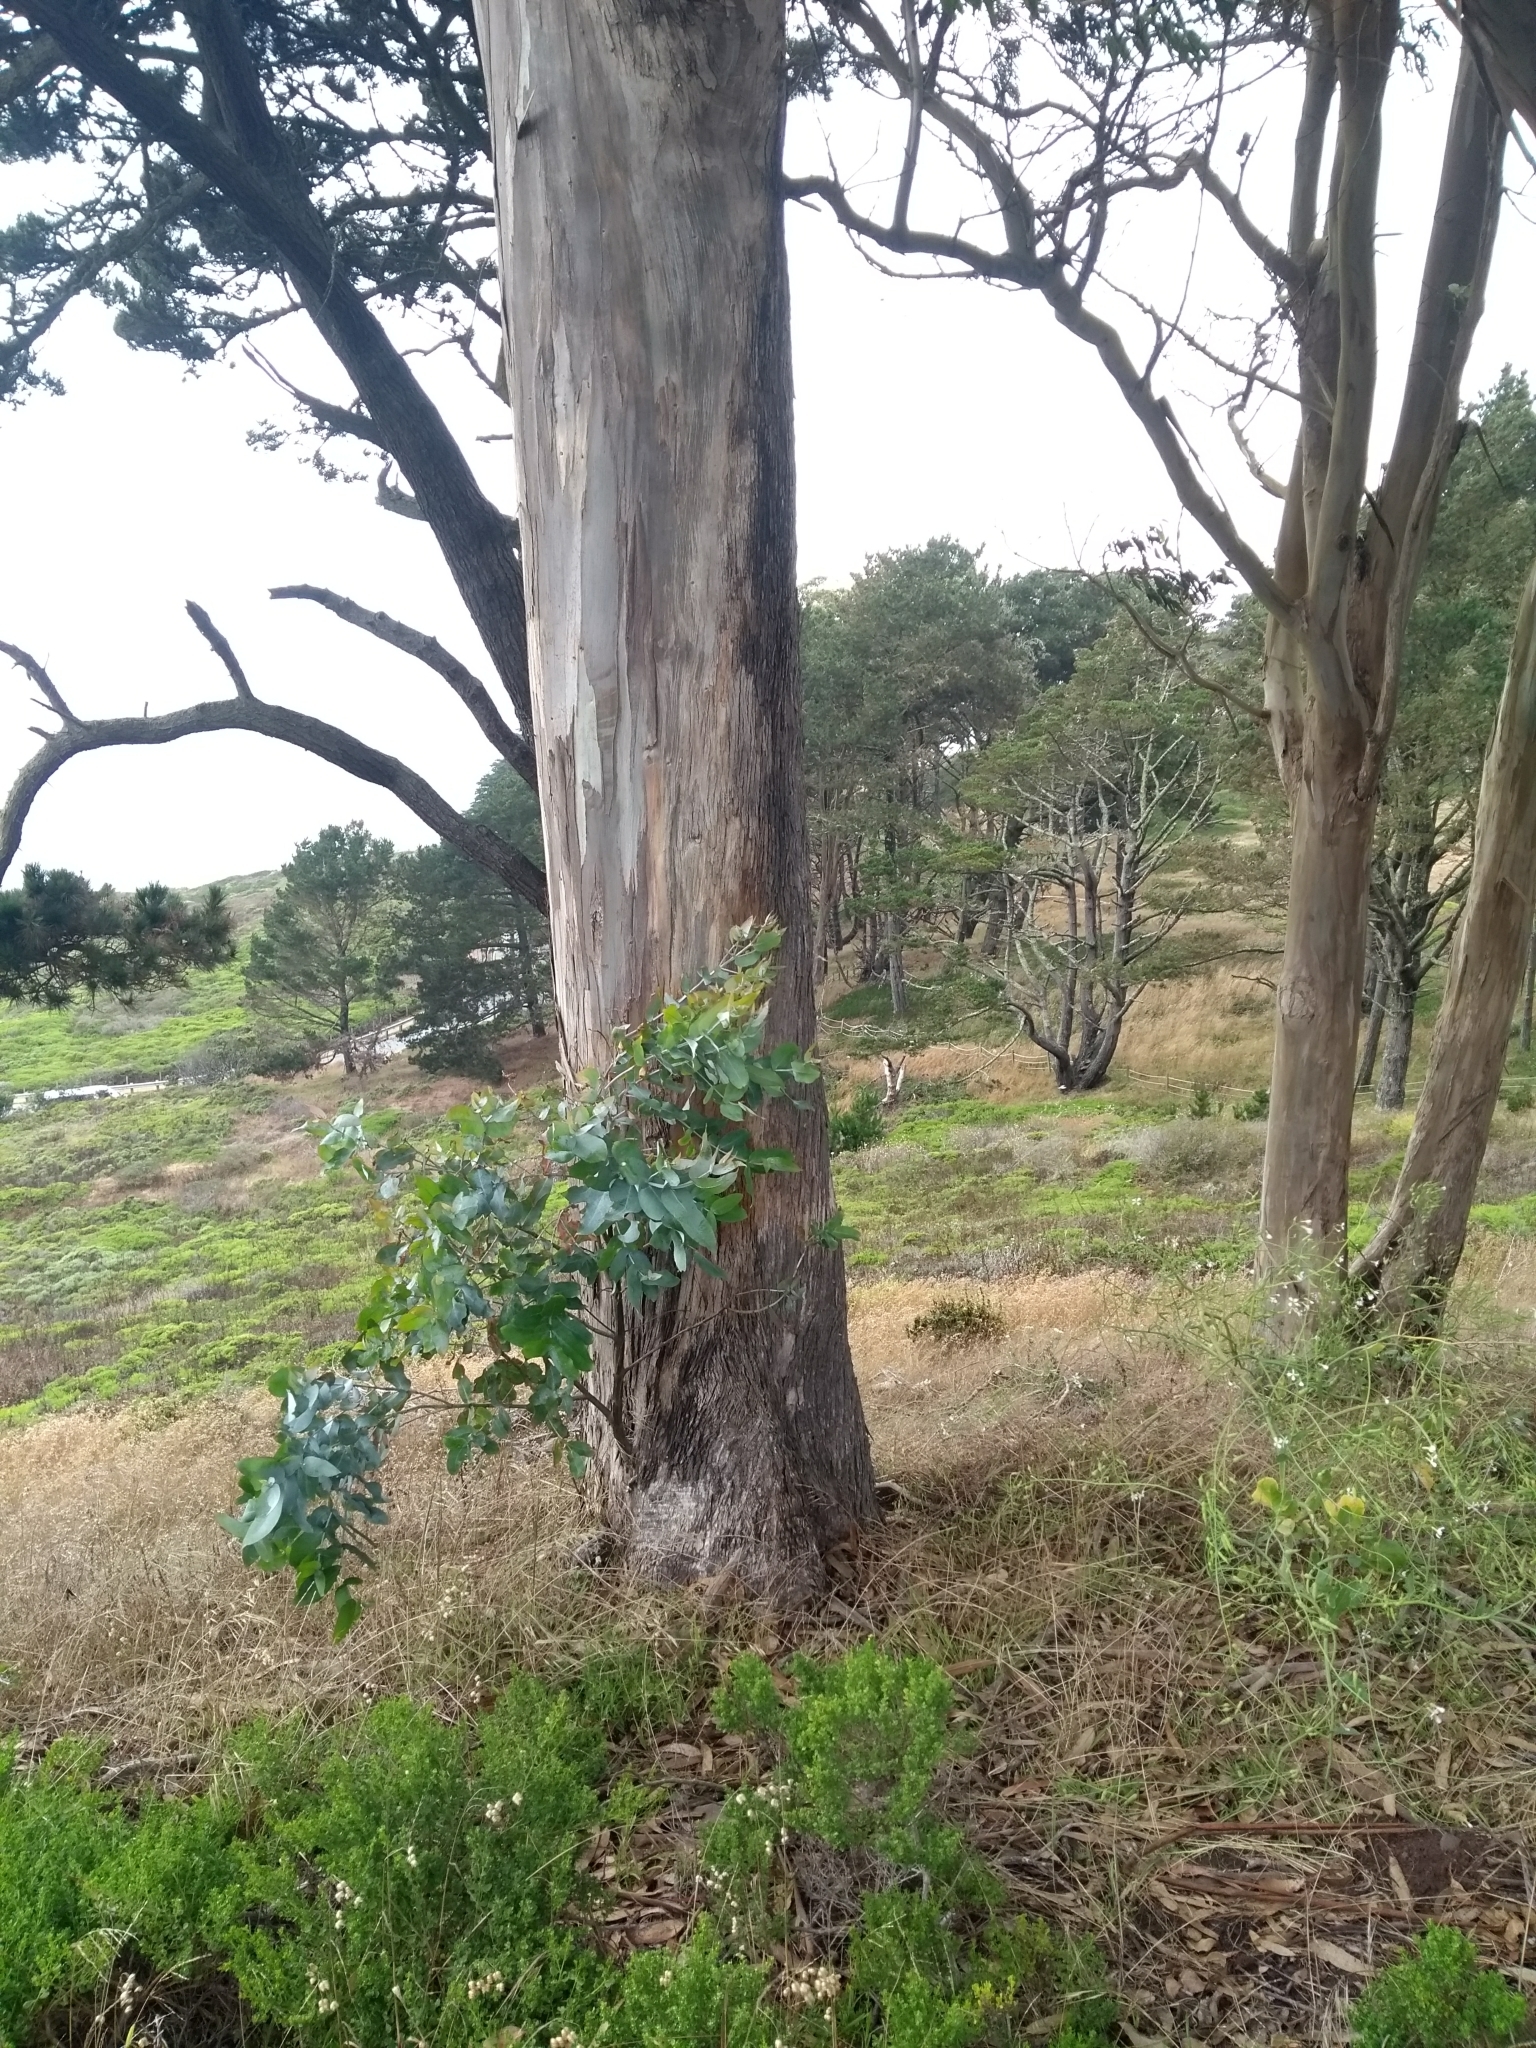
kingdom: Plantae
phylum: Tracheophyta
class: Magnoliopsida
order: Myrtales
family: Myrtaceae
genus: Eucalyptus
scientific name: Eucalyptus globulus
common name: Southern blue-gum
